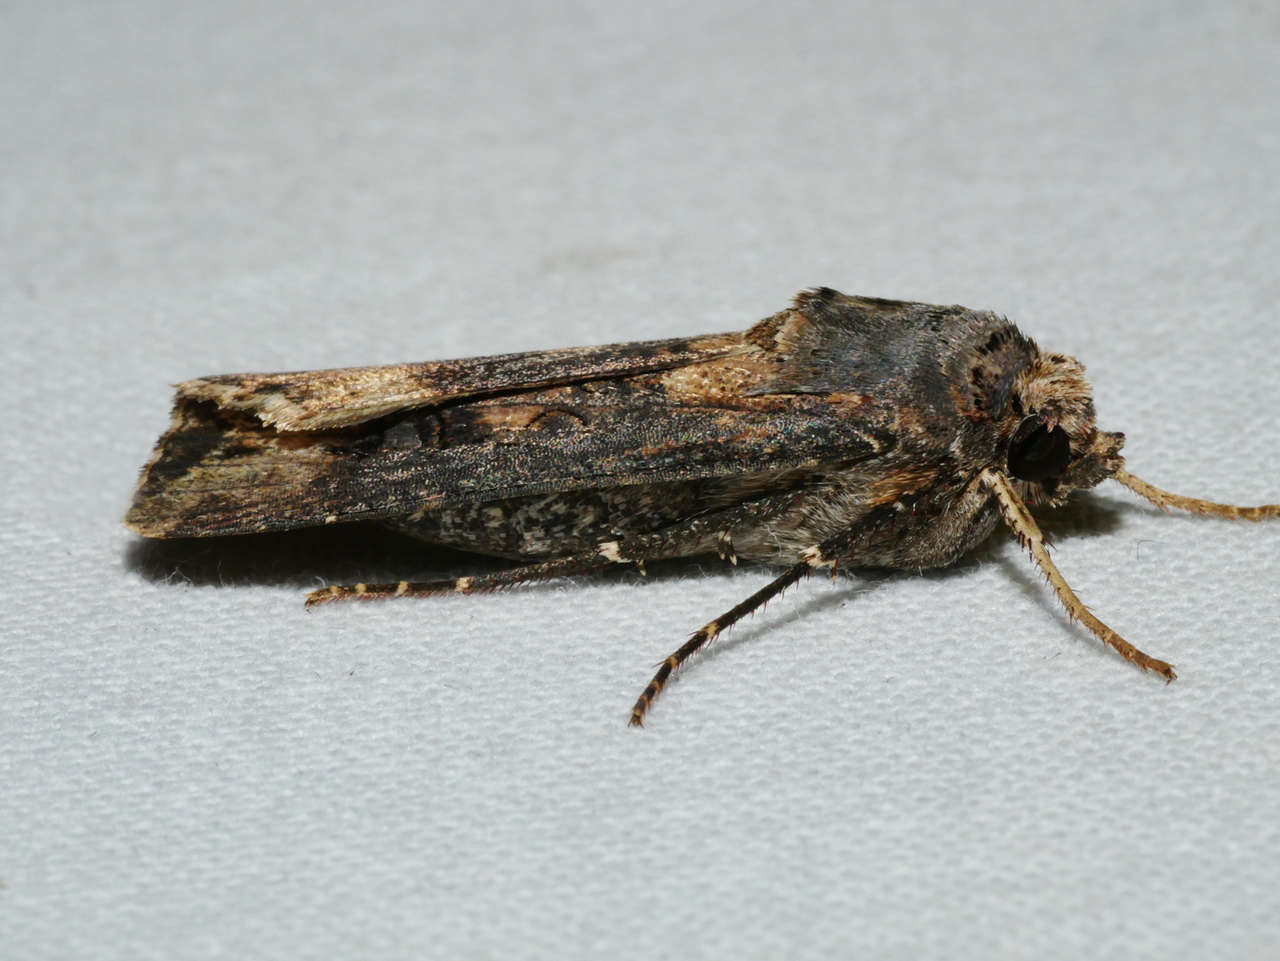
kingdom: Animalia
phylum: Arthropoda
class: Insecta
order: Lepidoptera
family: Noctuidae
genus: Agrotis
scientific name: Agrotis ipsilon
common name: Dark sword-grass
